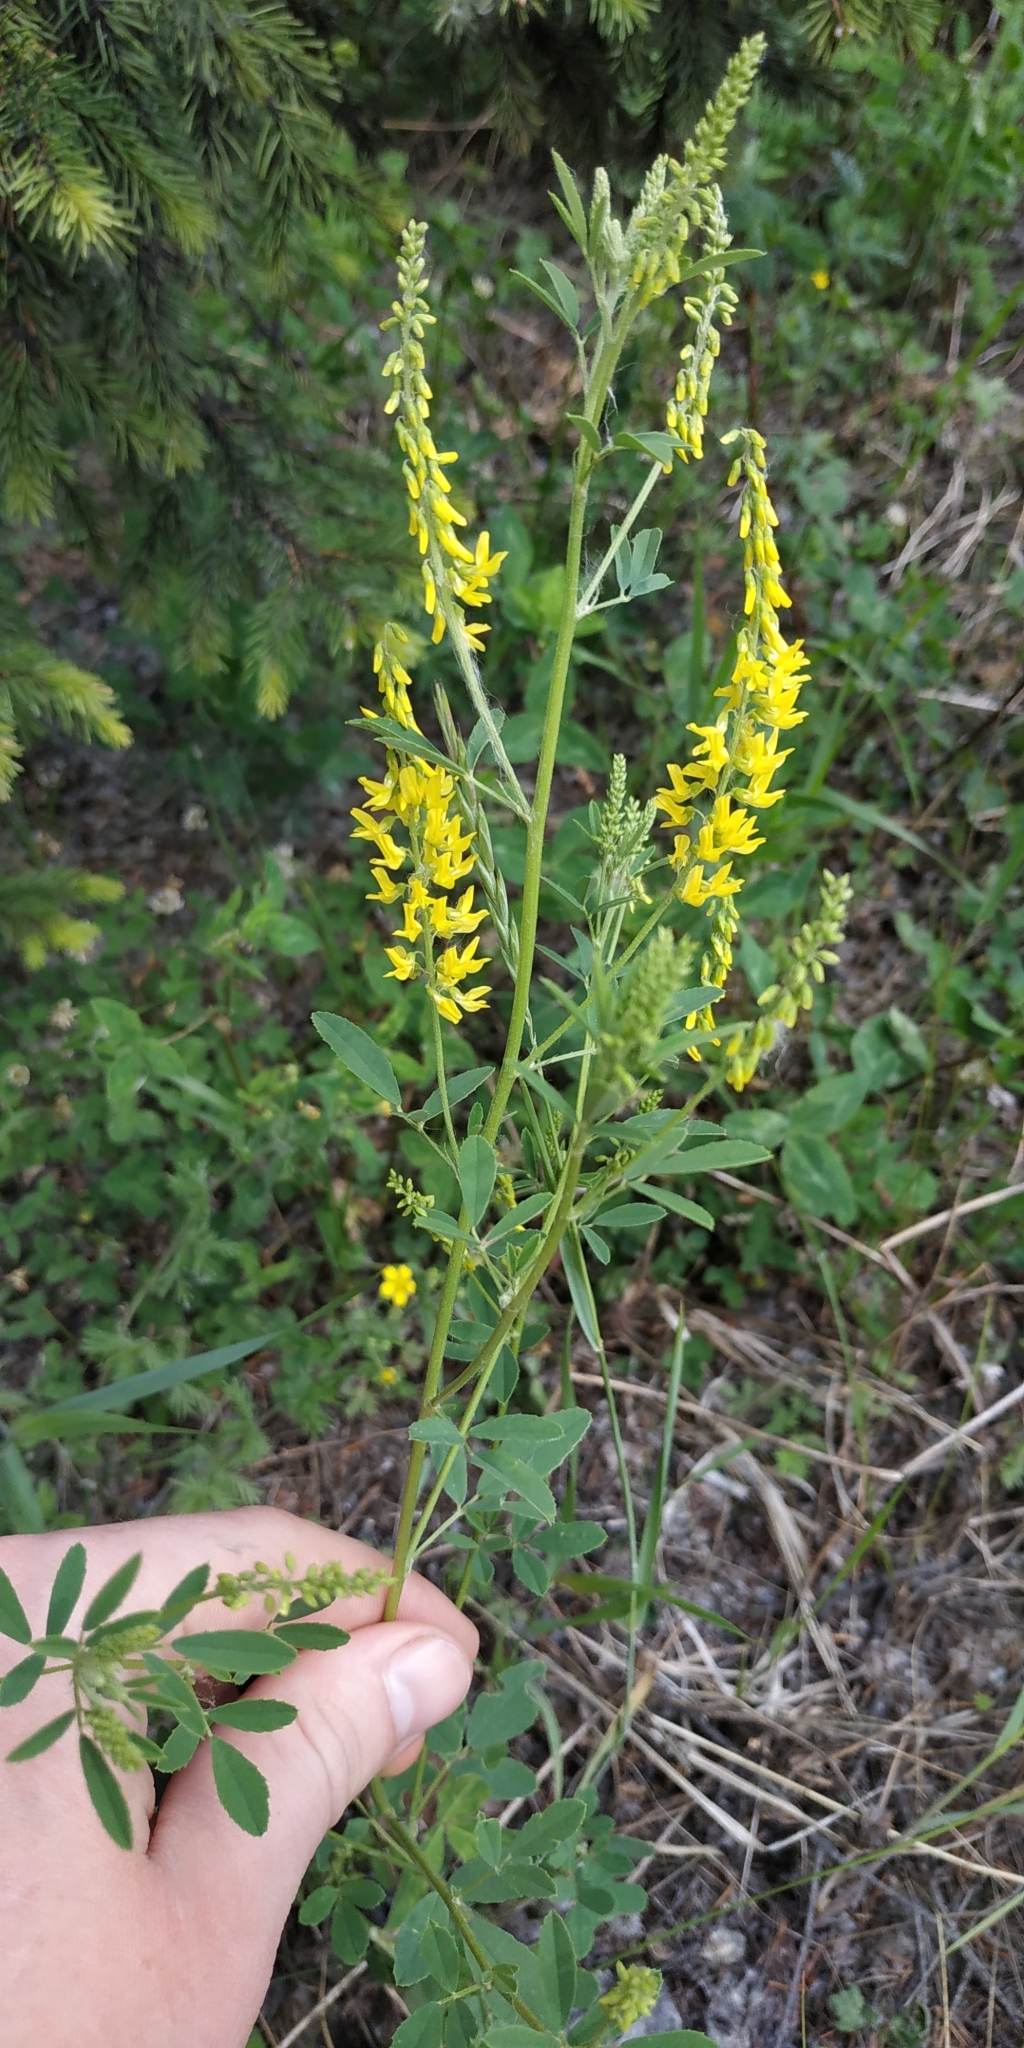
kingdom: Plantae
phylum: Tracheophyta
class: Magnoliopsida
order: Fabales
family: Fabaceae
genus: Melilotus
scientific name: Melilotus officinalis
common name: Sweetclover
